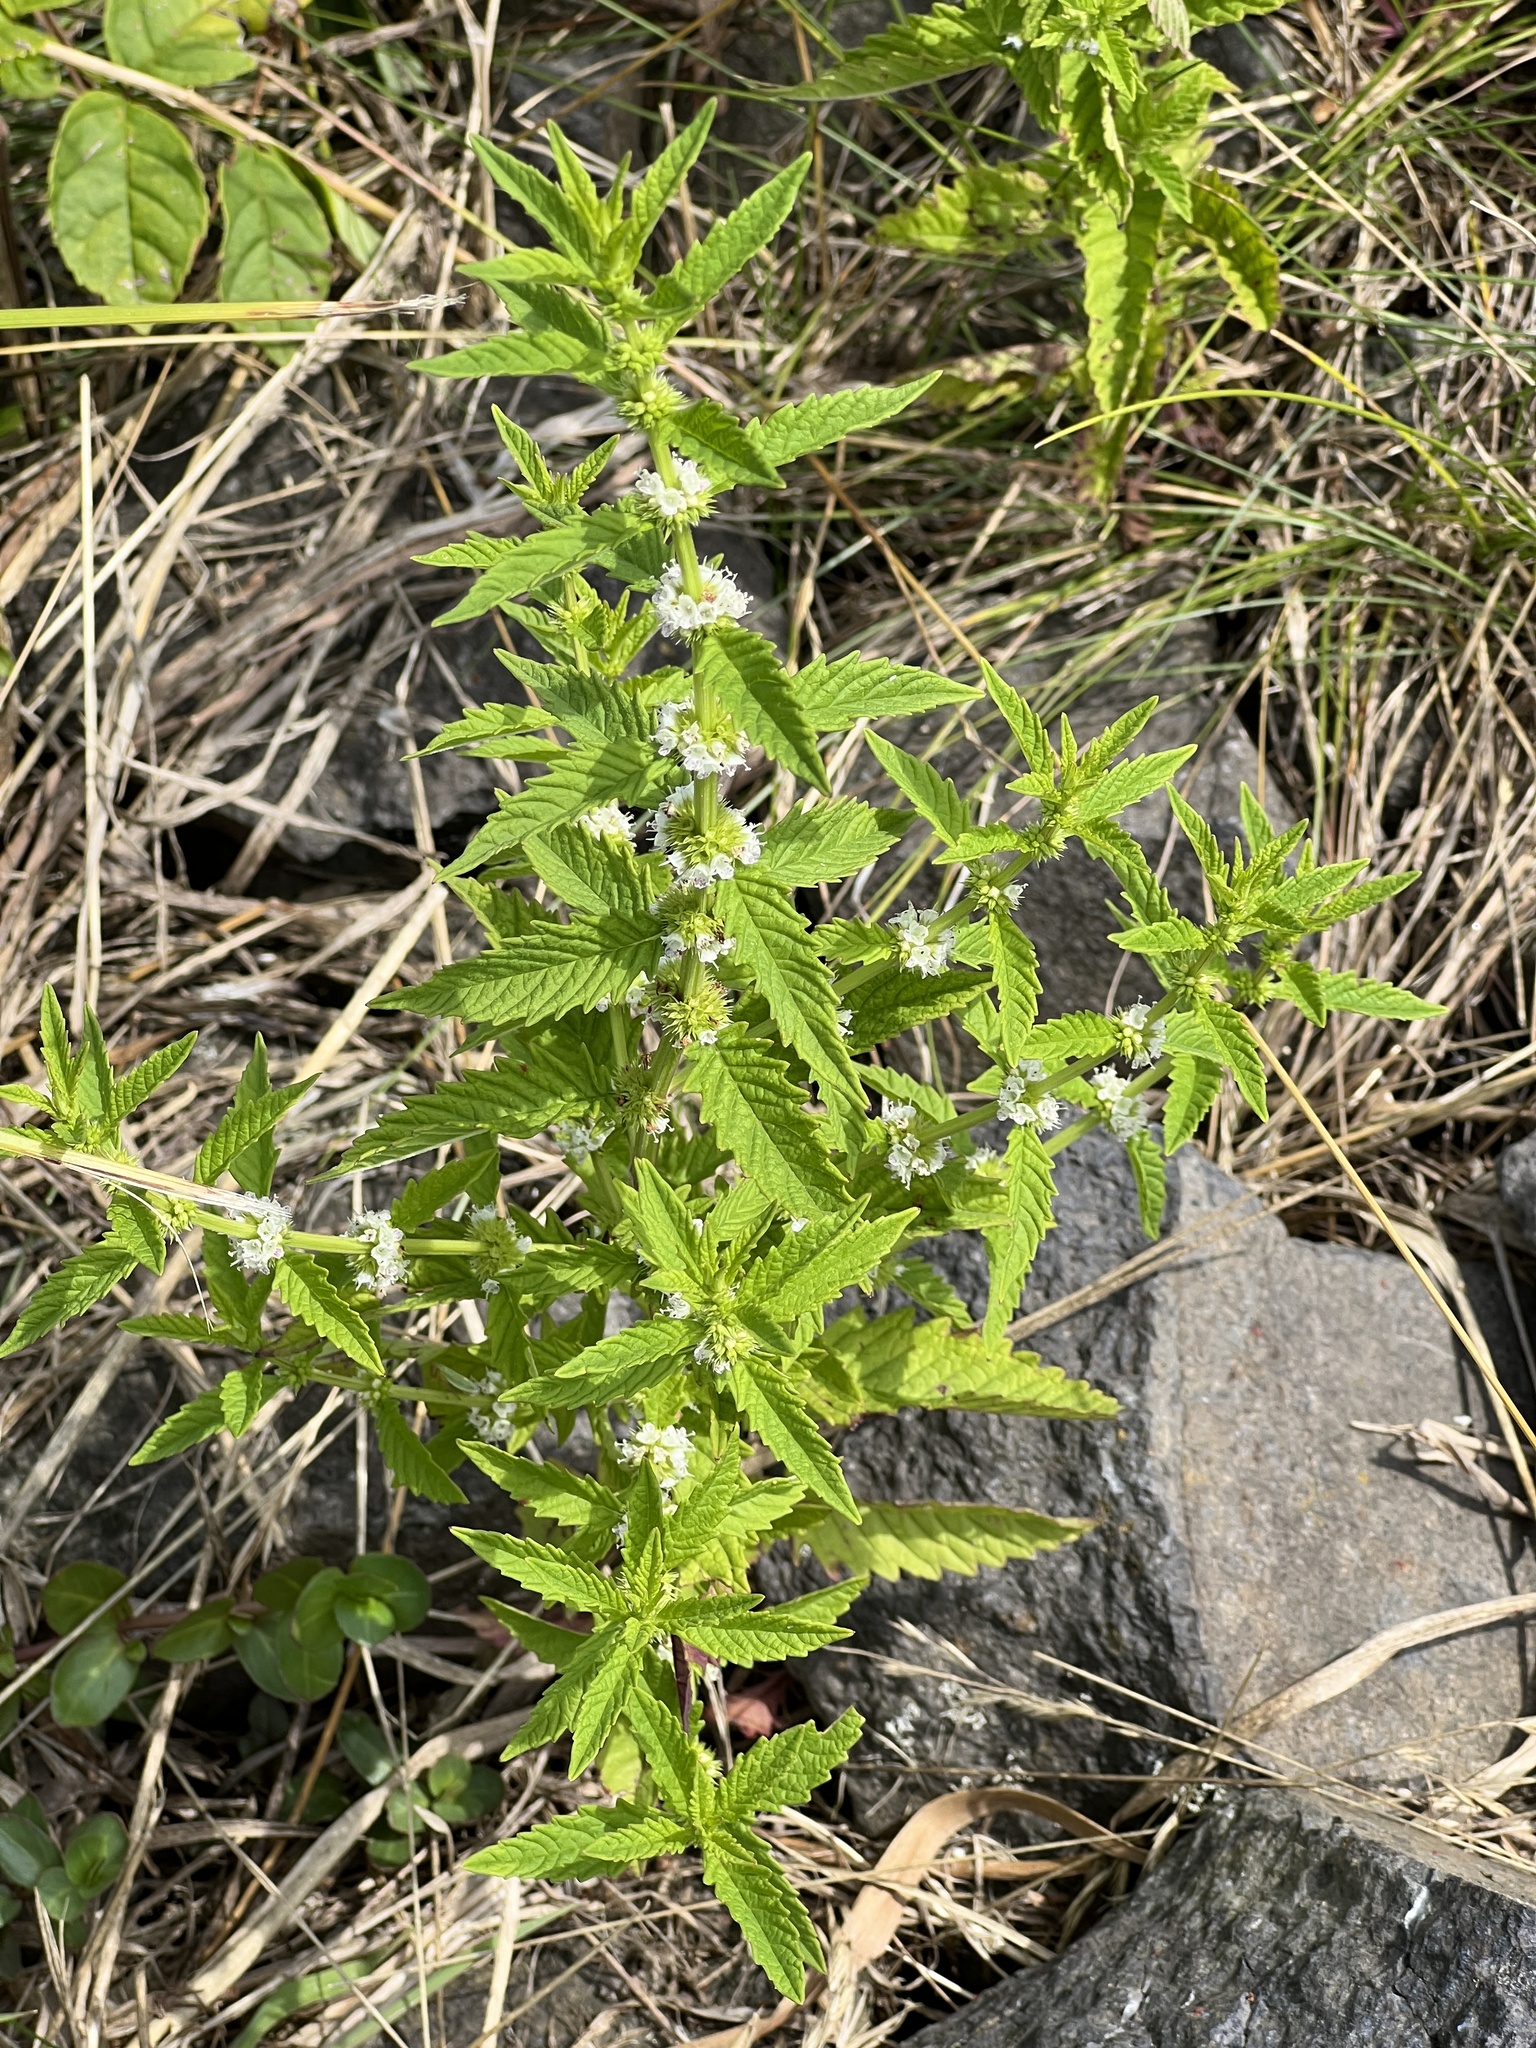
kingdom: Plantae
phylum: Tracheophyta
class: Magnoliopsida
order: Lamiales
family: Lamiaceae
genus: Lycopus
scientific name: Lycopus europaeus
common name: European bugleweed
